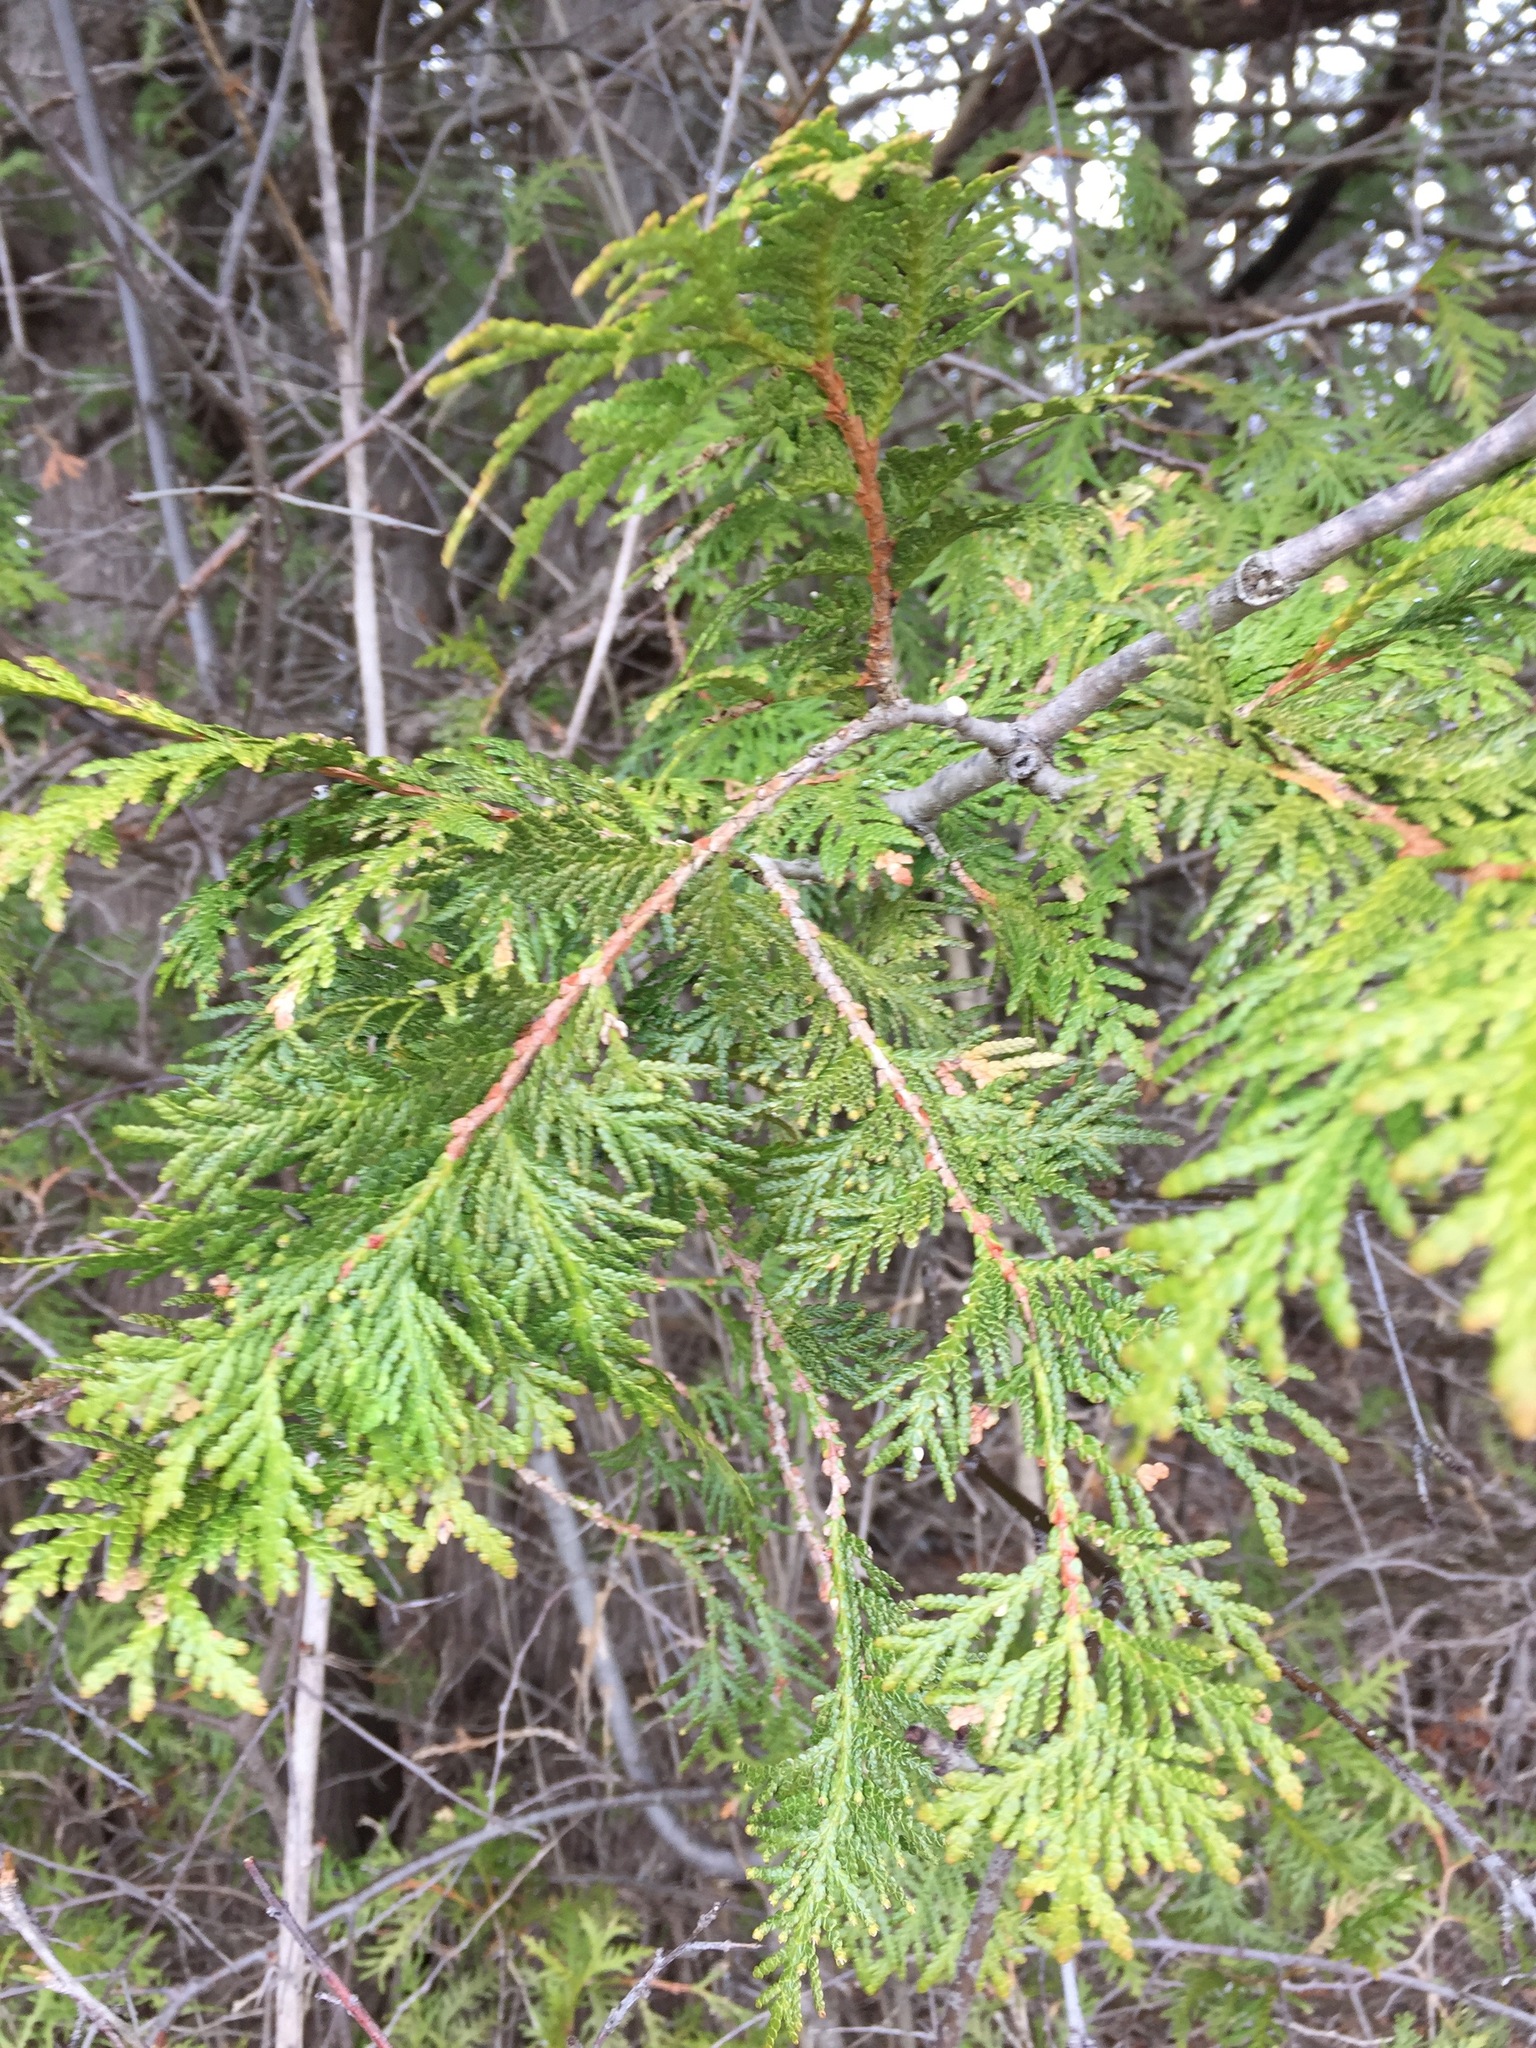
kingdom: Plantae
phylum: Tracheophyta
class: Pinopsida
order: Pinales
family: Cupressaceae
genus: Thuja
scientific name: Thuja occidentalis
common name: Northern white-cedar
